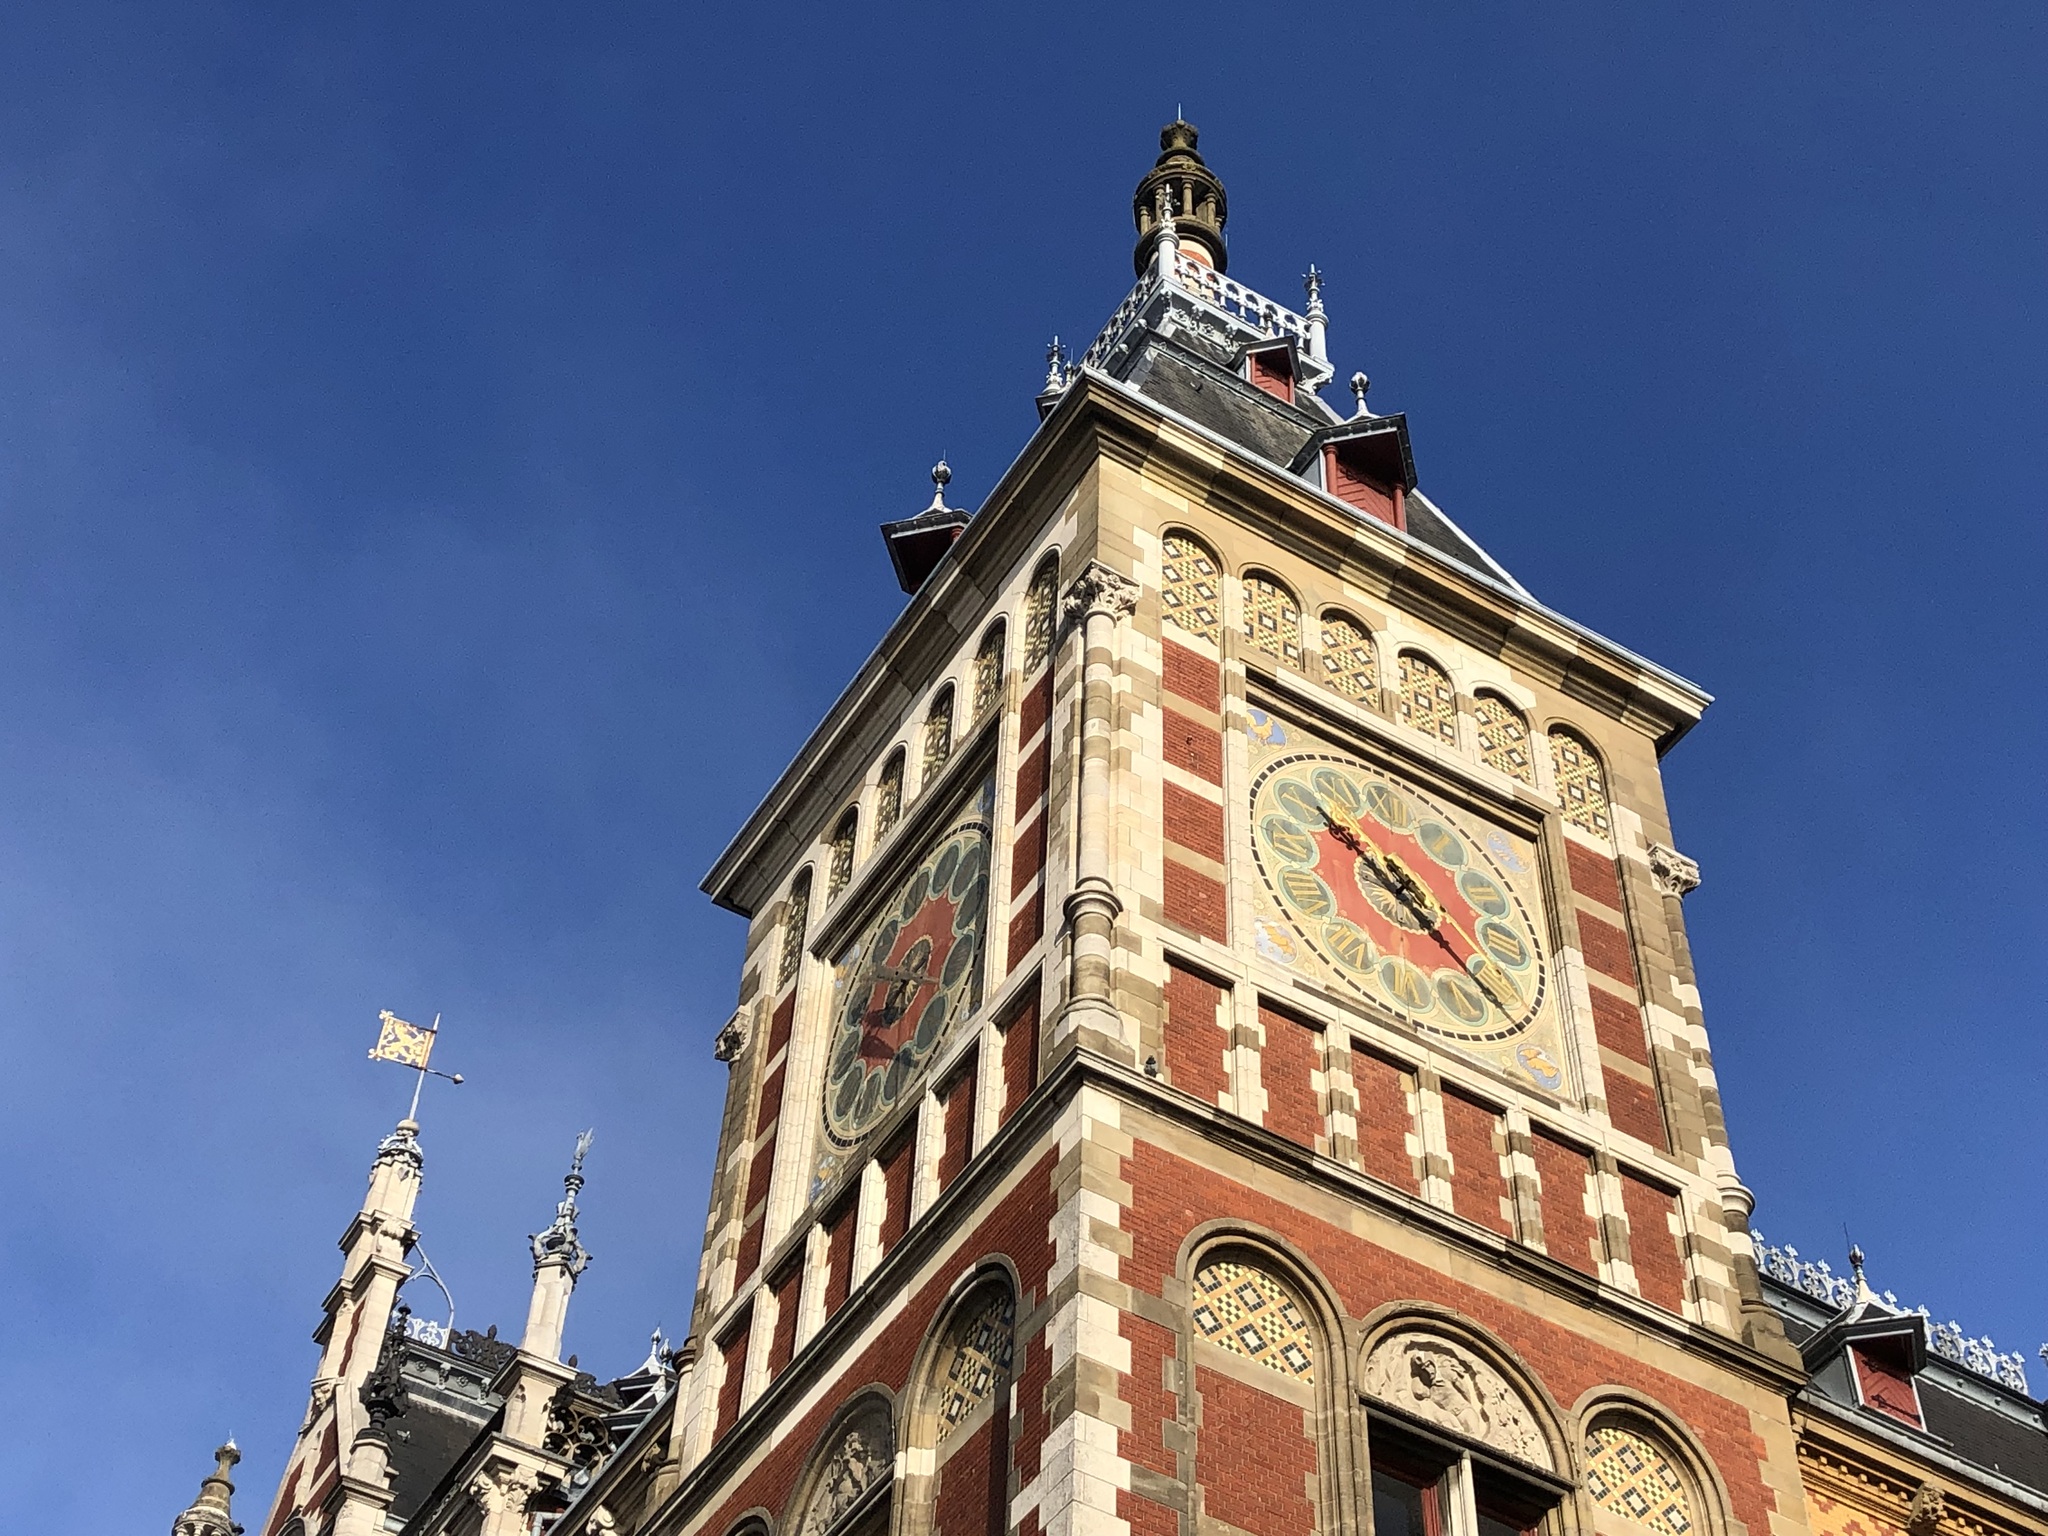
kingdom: Animalia
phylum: Chordata
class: Aves
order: Columbiformes
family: Columbidae
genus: Columba
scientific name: Columba livia
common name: Rock pigeon
